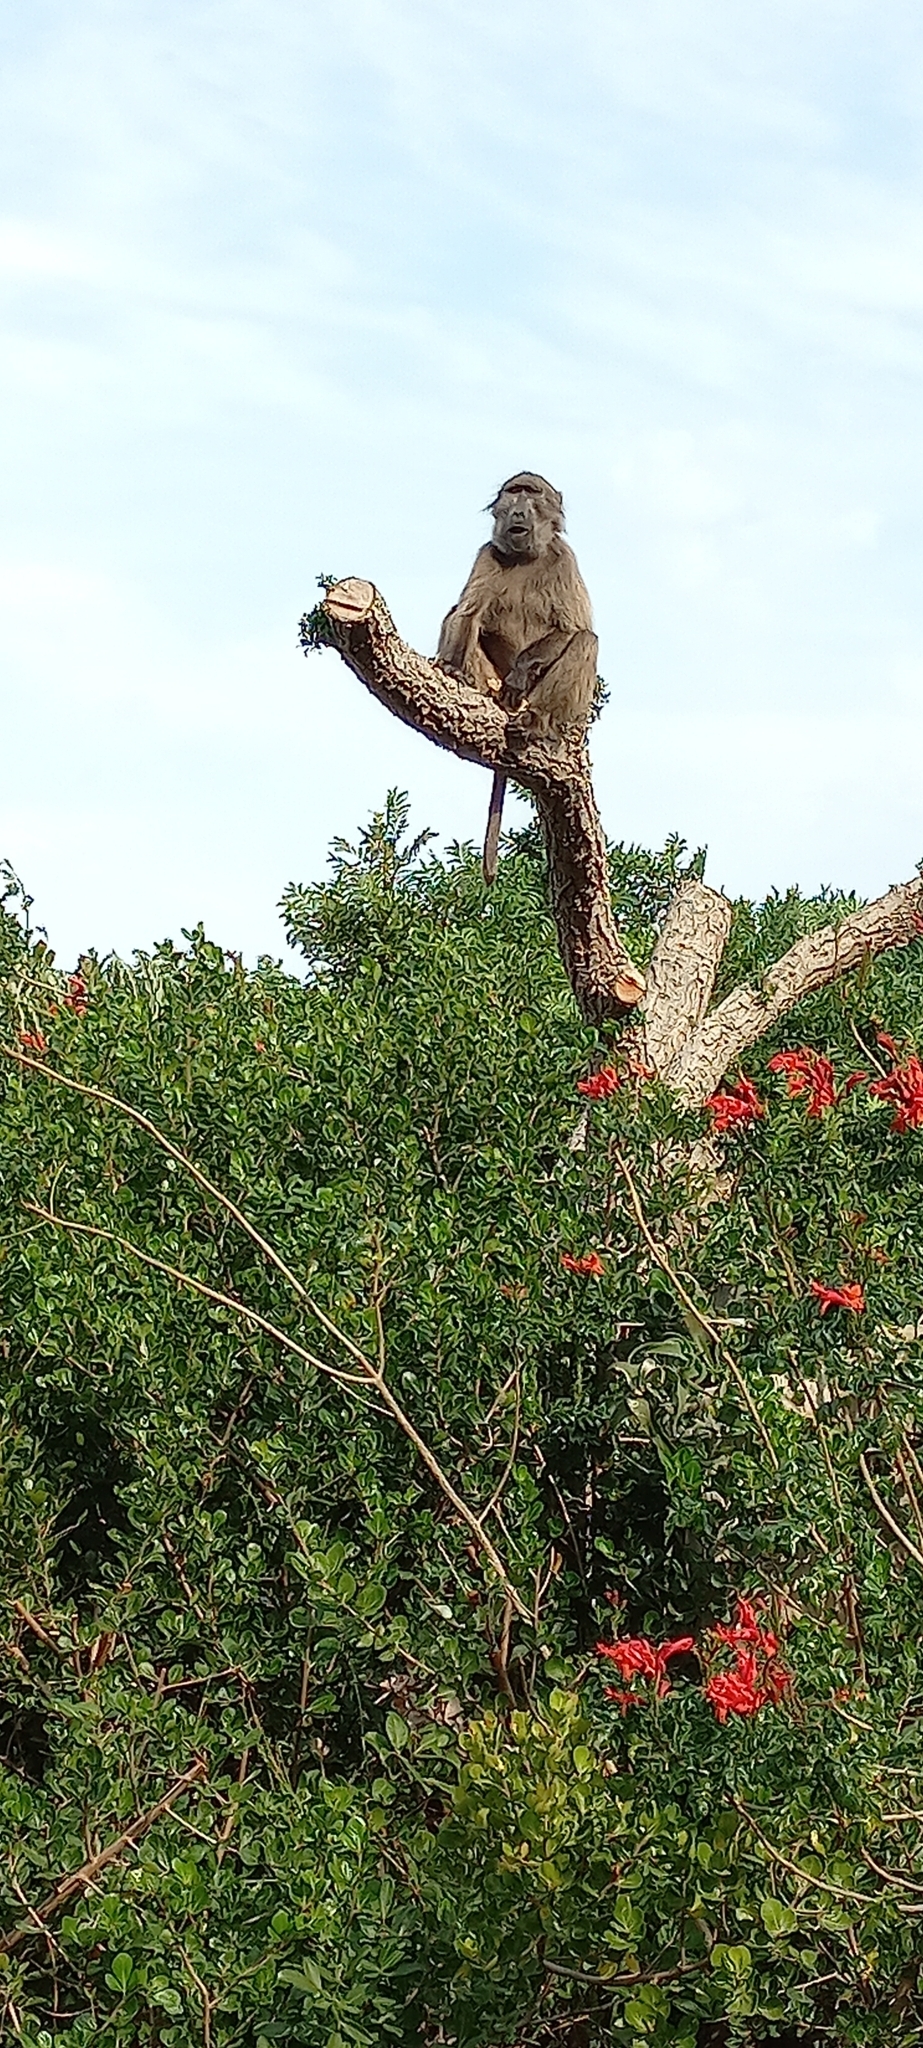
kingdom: Animalia
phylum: Chordata
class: Mammalia
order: Primates
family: Cercopithecidae
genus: Papio
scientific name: Papio ursinus
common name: Chacma baboon
